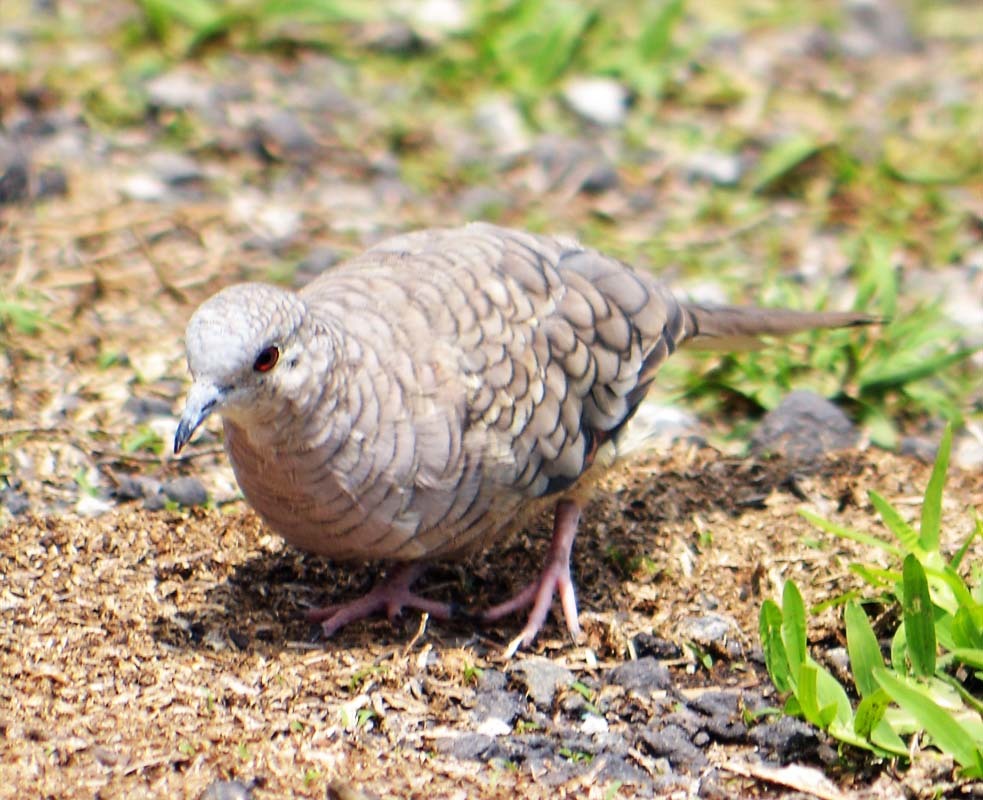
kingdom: Animalia
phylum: Chordata
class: Aves
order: Columbiformes
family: Columbidae
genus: Columbina
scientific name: Columbina inca
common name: Inca dove
